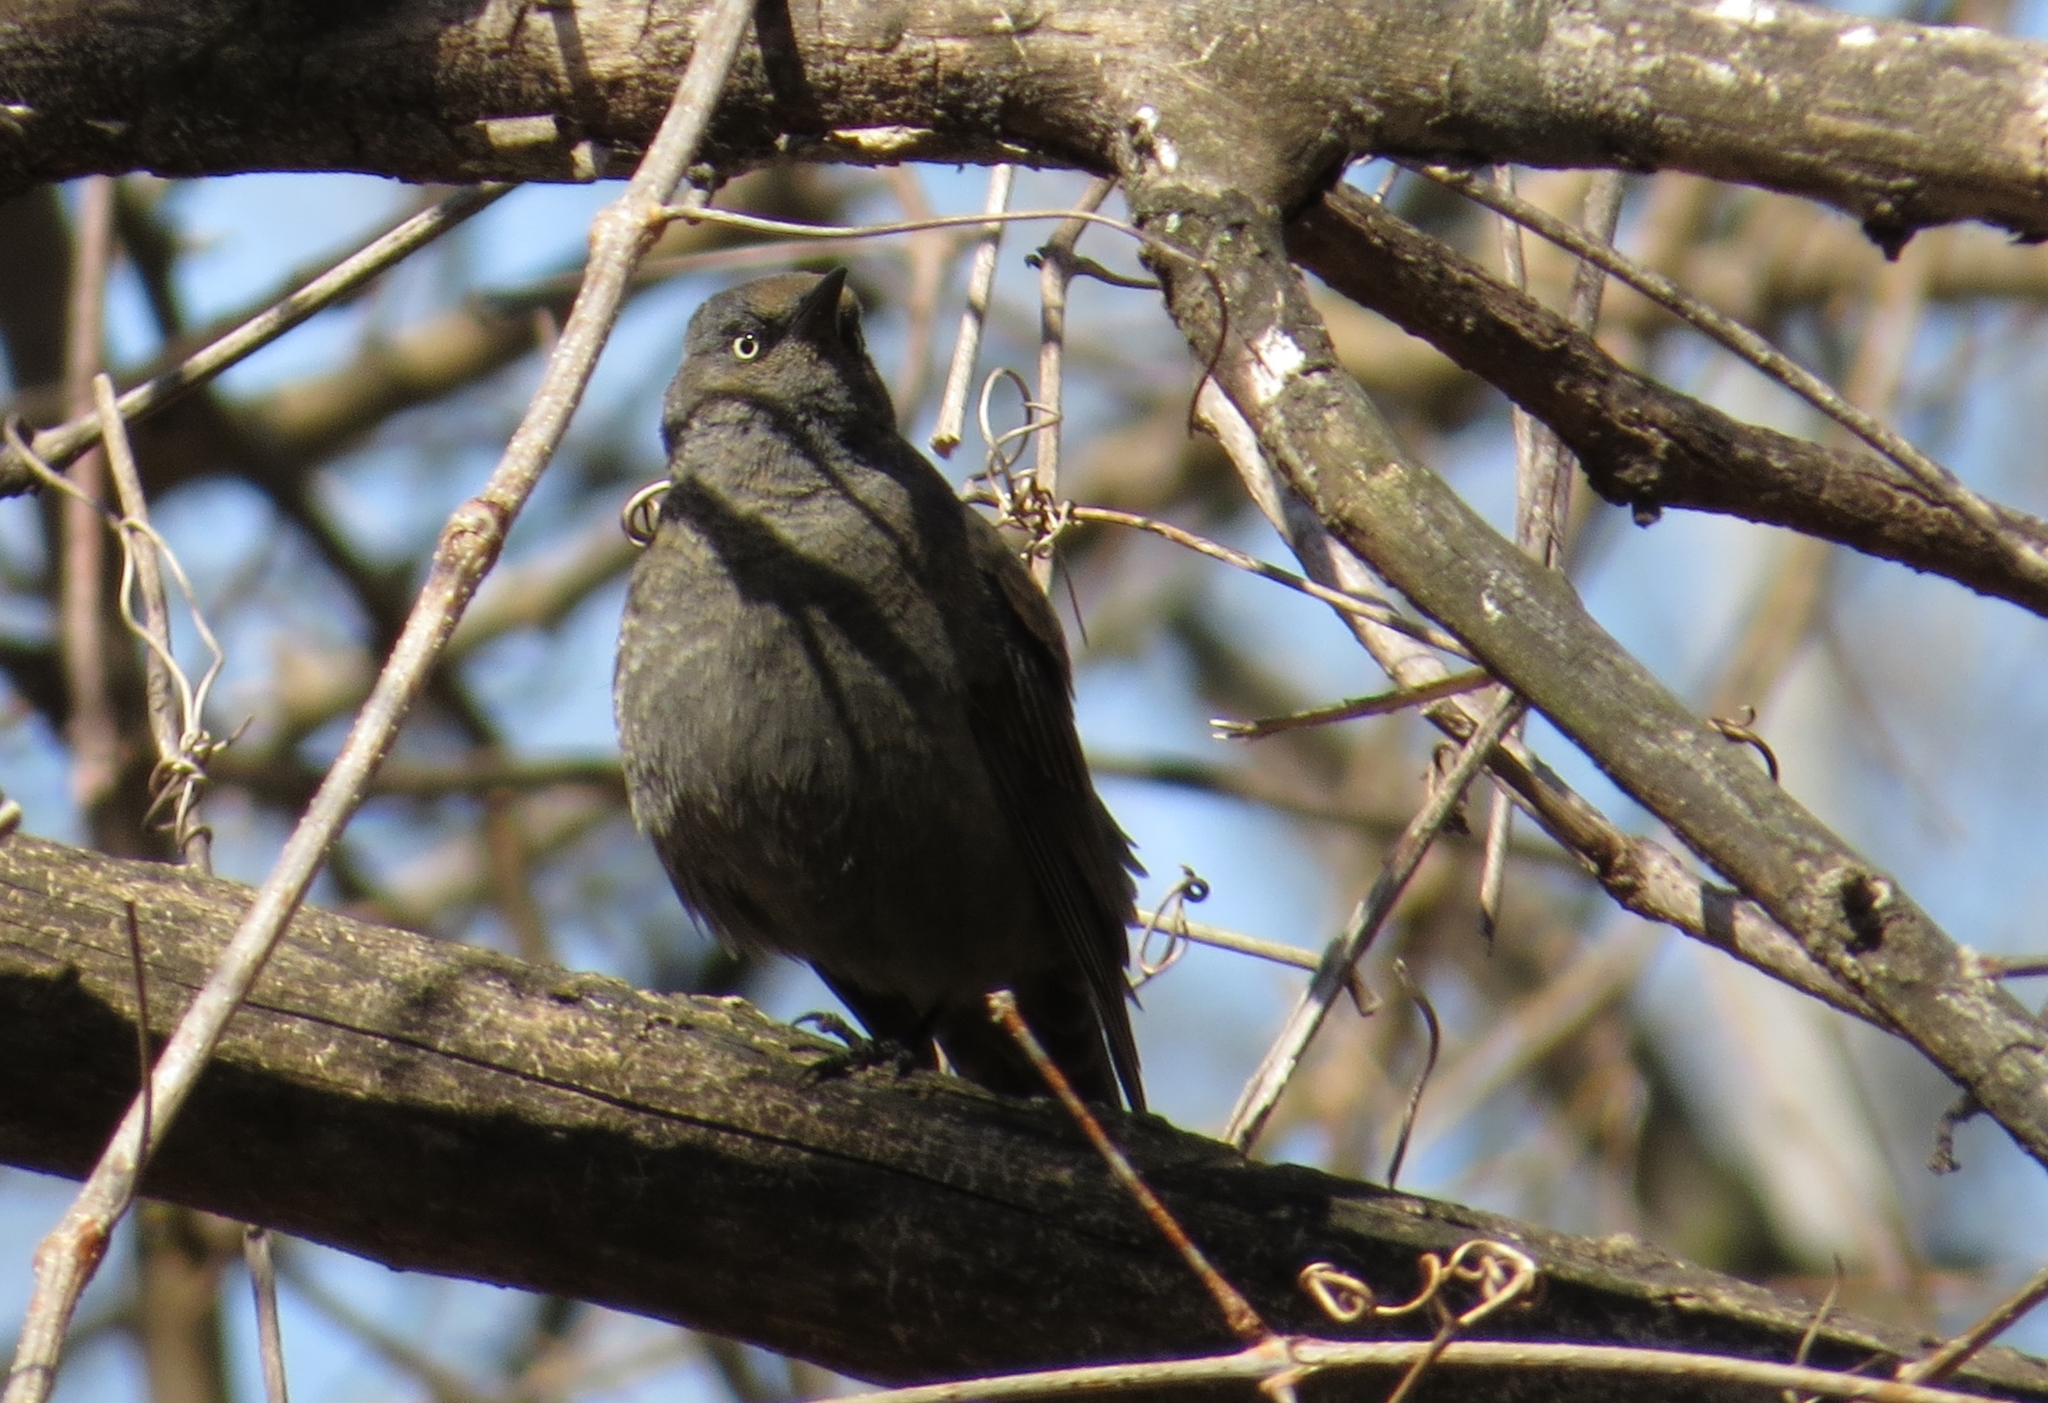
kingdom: Animalia
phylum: Chordata
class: Aves
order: Passeriformes
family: Icteridae
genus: Euphagus
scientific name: Euphagus carolinus
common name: Rusty blackbird
